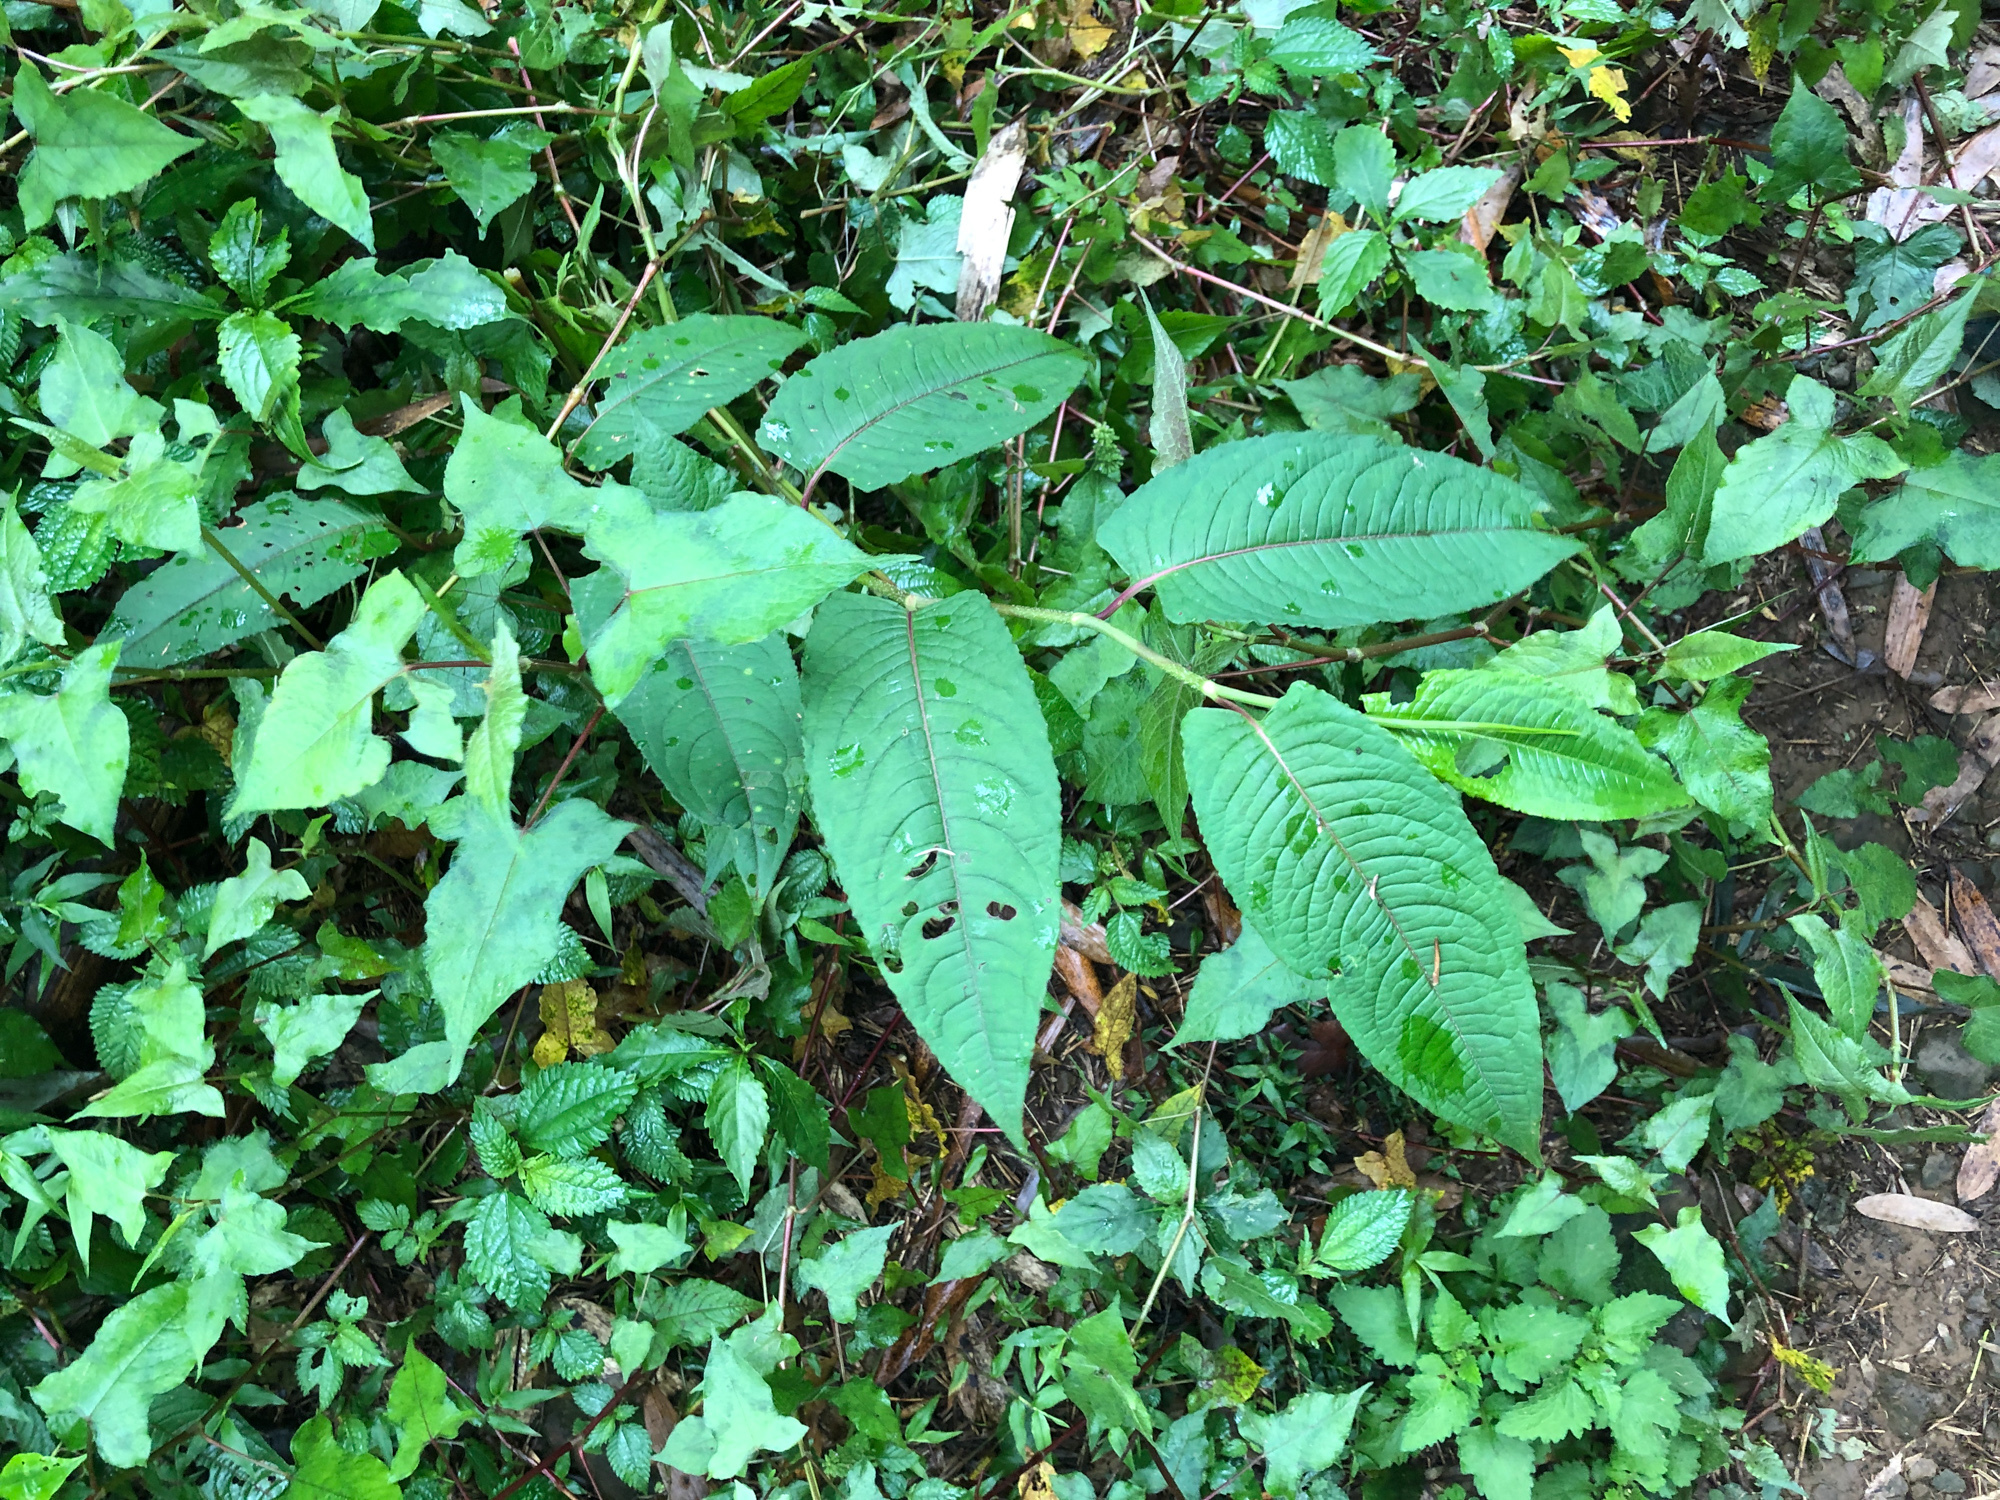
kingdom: Plantae
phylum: Tracheophyta
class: Magnoliopsida
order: Caryophyllales
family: Polygonaceae
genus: Persicaria
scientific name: Persicaria chinensis
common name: Chinese knotweed
